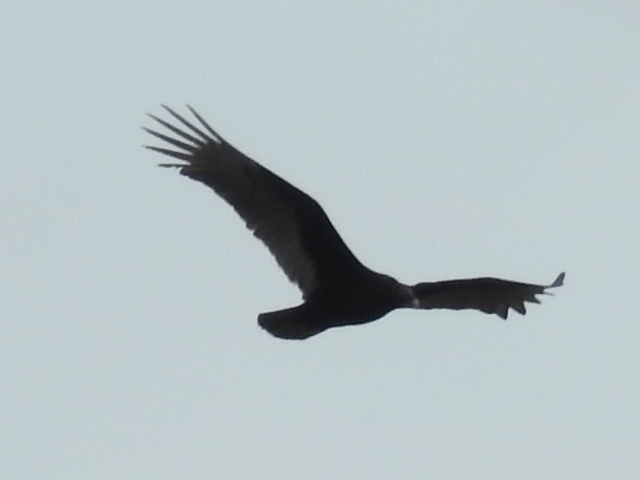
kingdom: Animalia
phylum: Chordata
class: Aves
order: Accipitriformes
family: Cathartidae
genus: Cathartes
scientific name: Cathartes aura
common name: Turkey vulture
